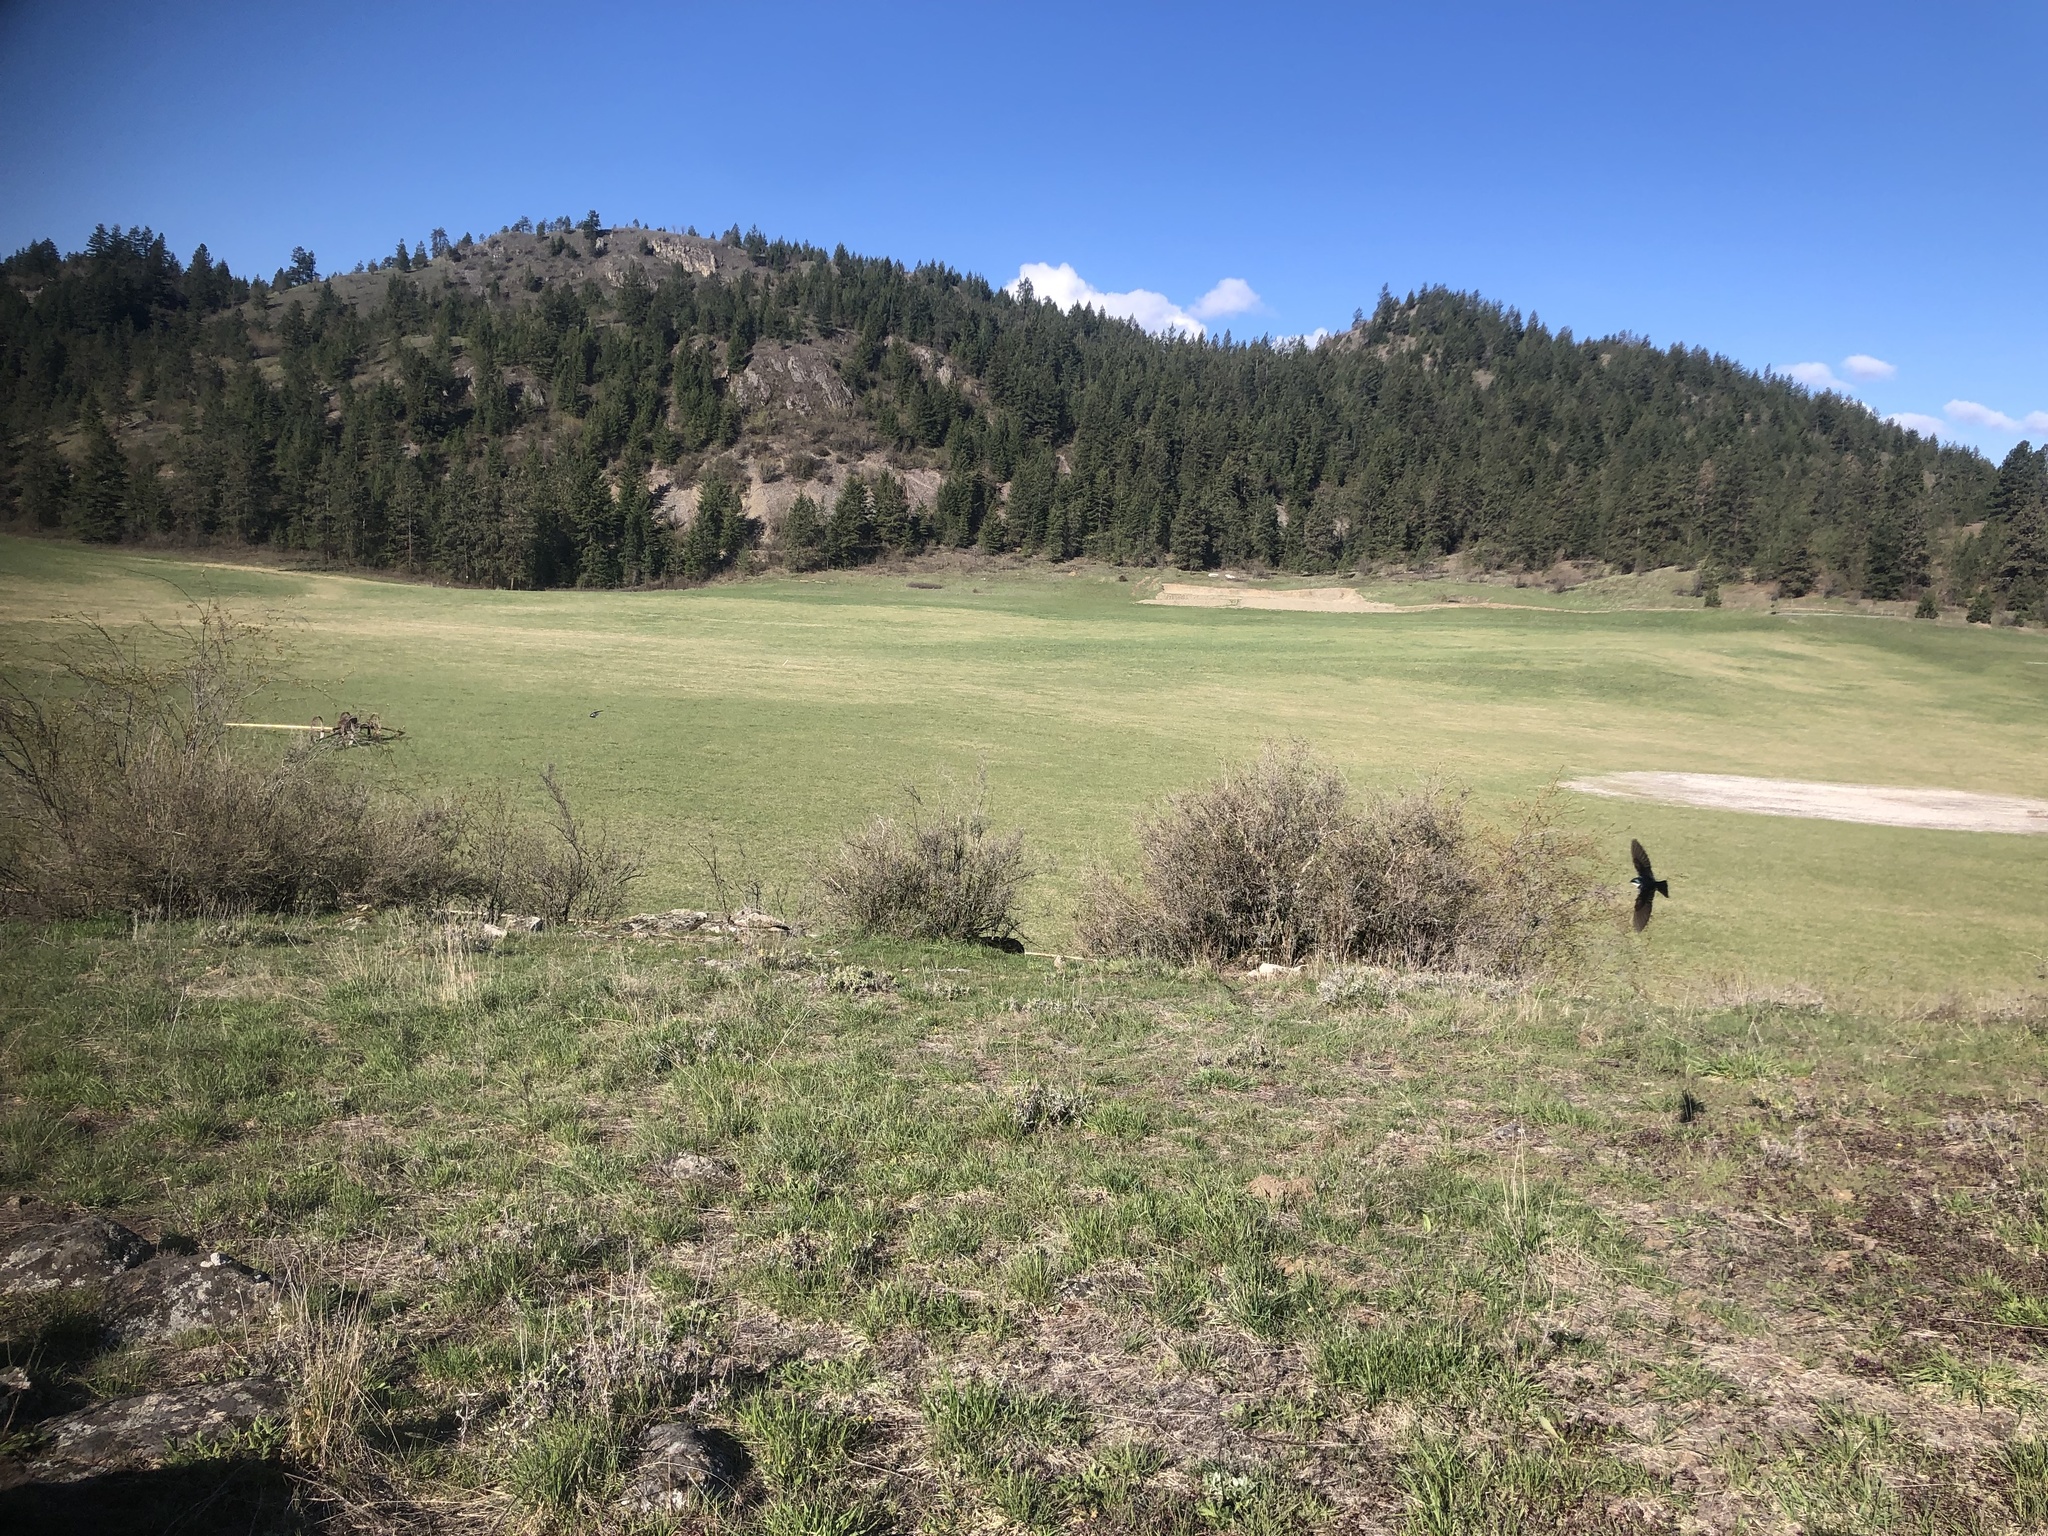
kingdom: Animalia
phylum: Chordata
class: Aves
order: Passeriformes
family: Hirundinidae
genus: Tachycineta
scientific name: Tachycineta bicolor
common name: Tree swallow
